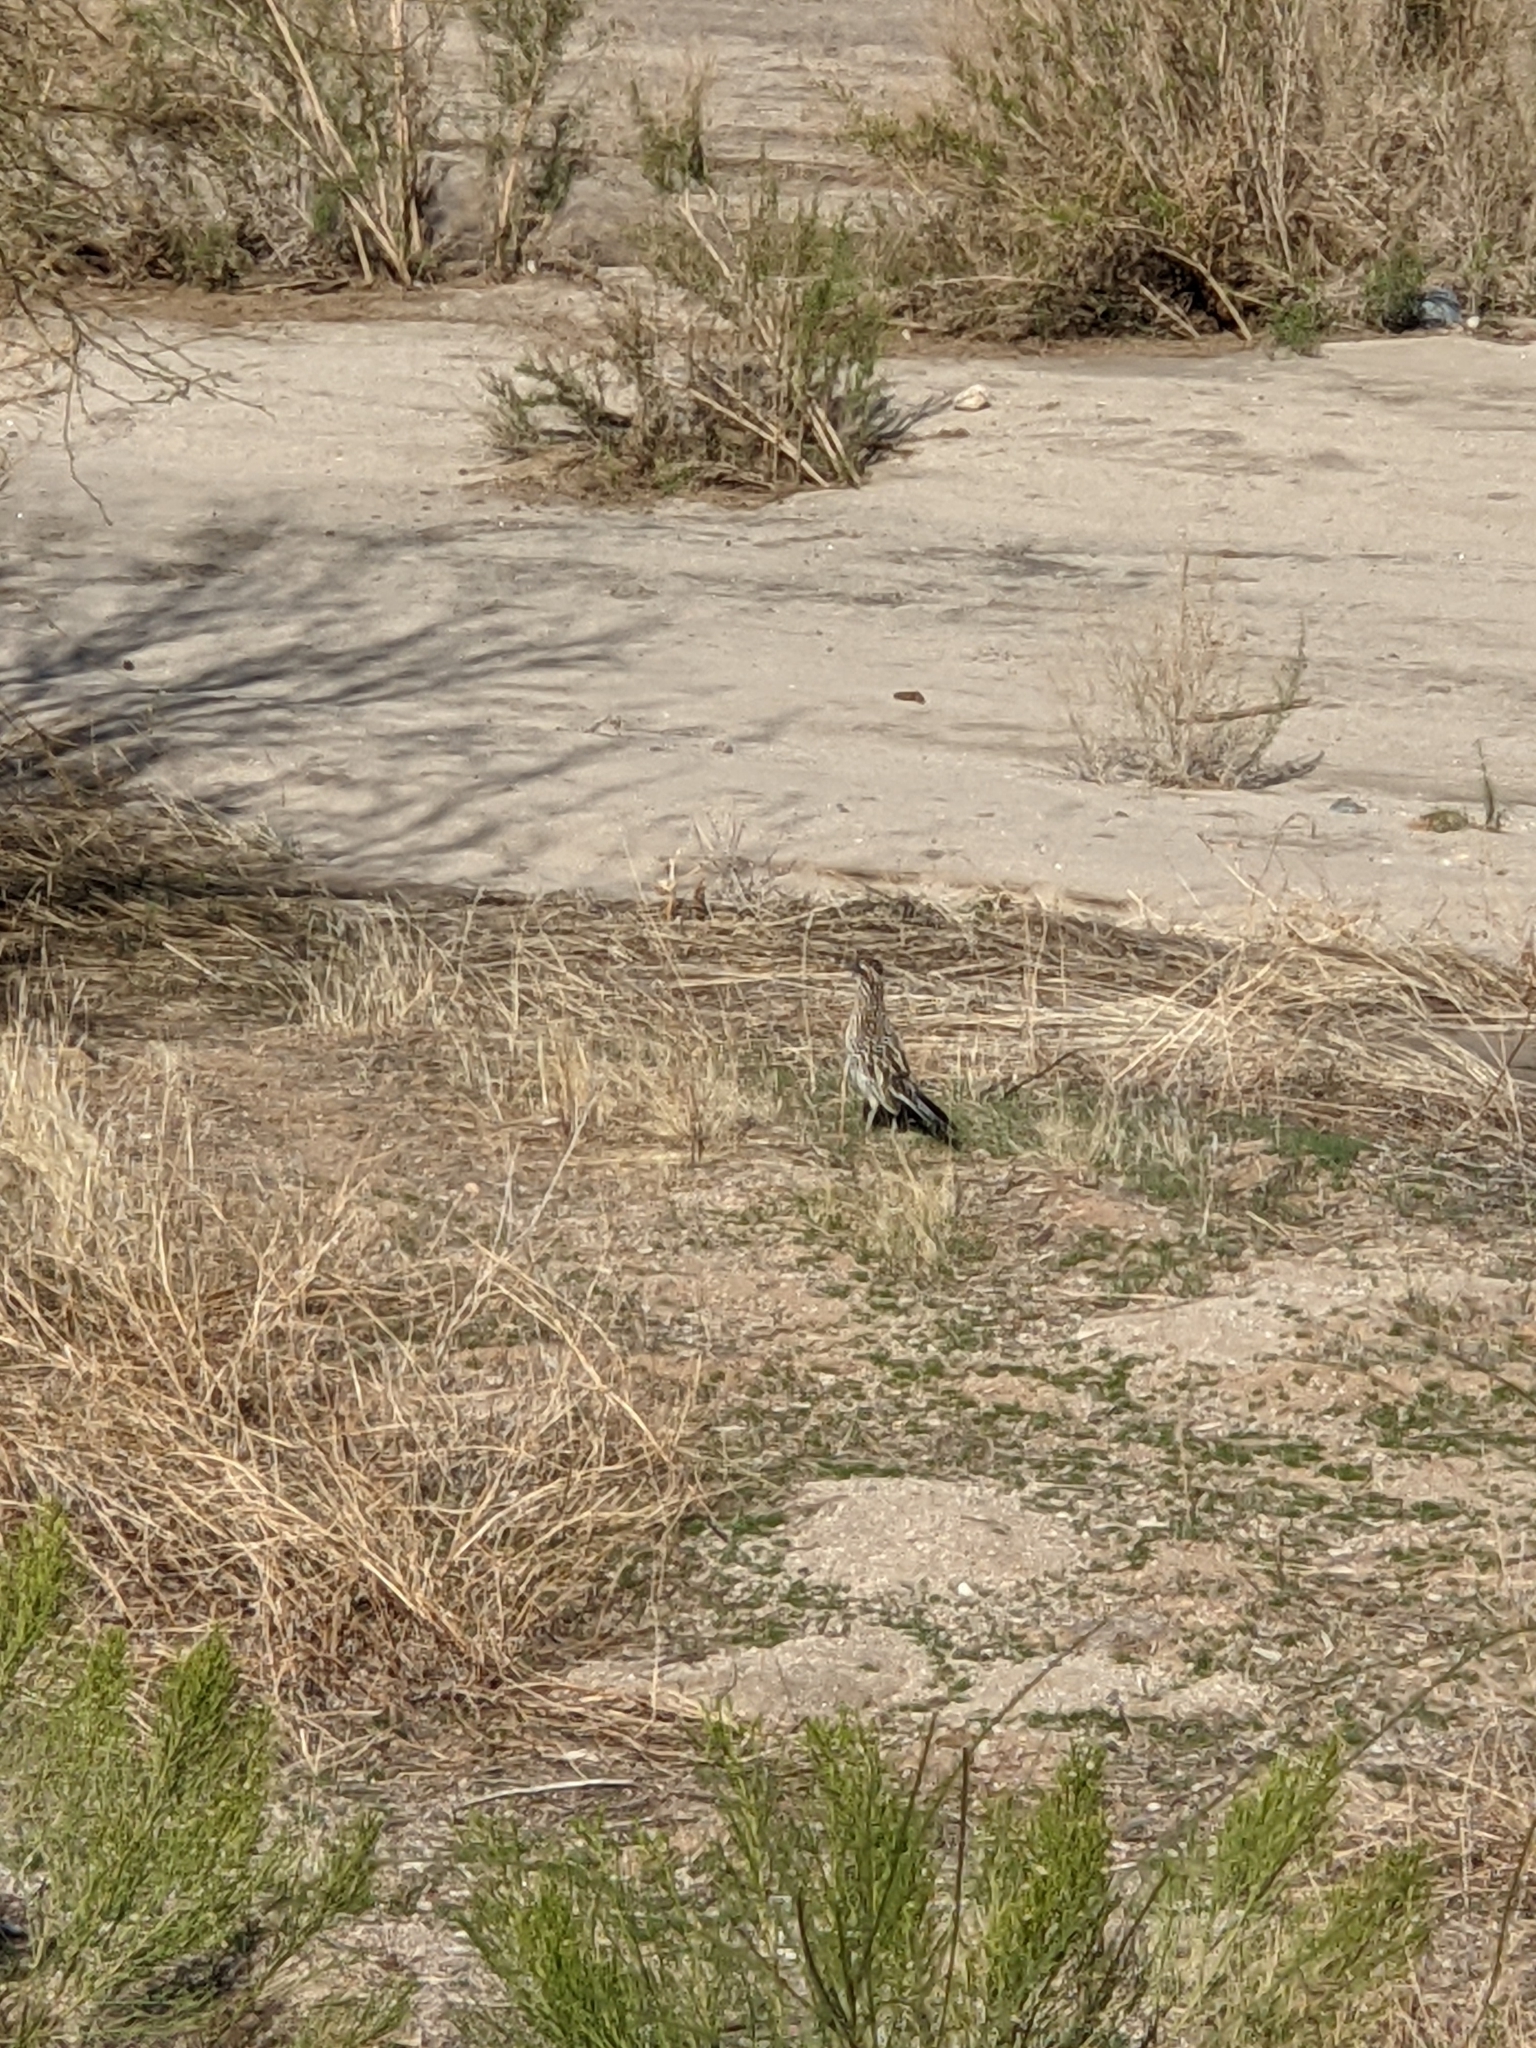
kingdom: Animalia
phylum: Chordata
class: Aves
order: Cuculiformes
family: Cuculidae
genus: Geococcyx
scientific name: Geococcyx californianus
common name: Greater roadrunner
